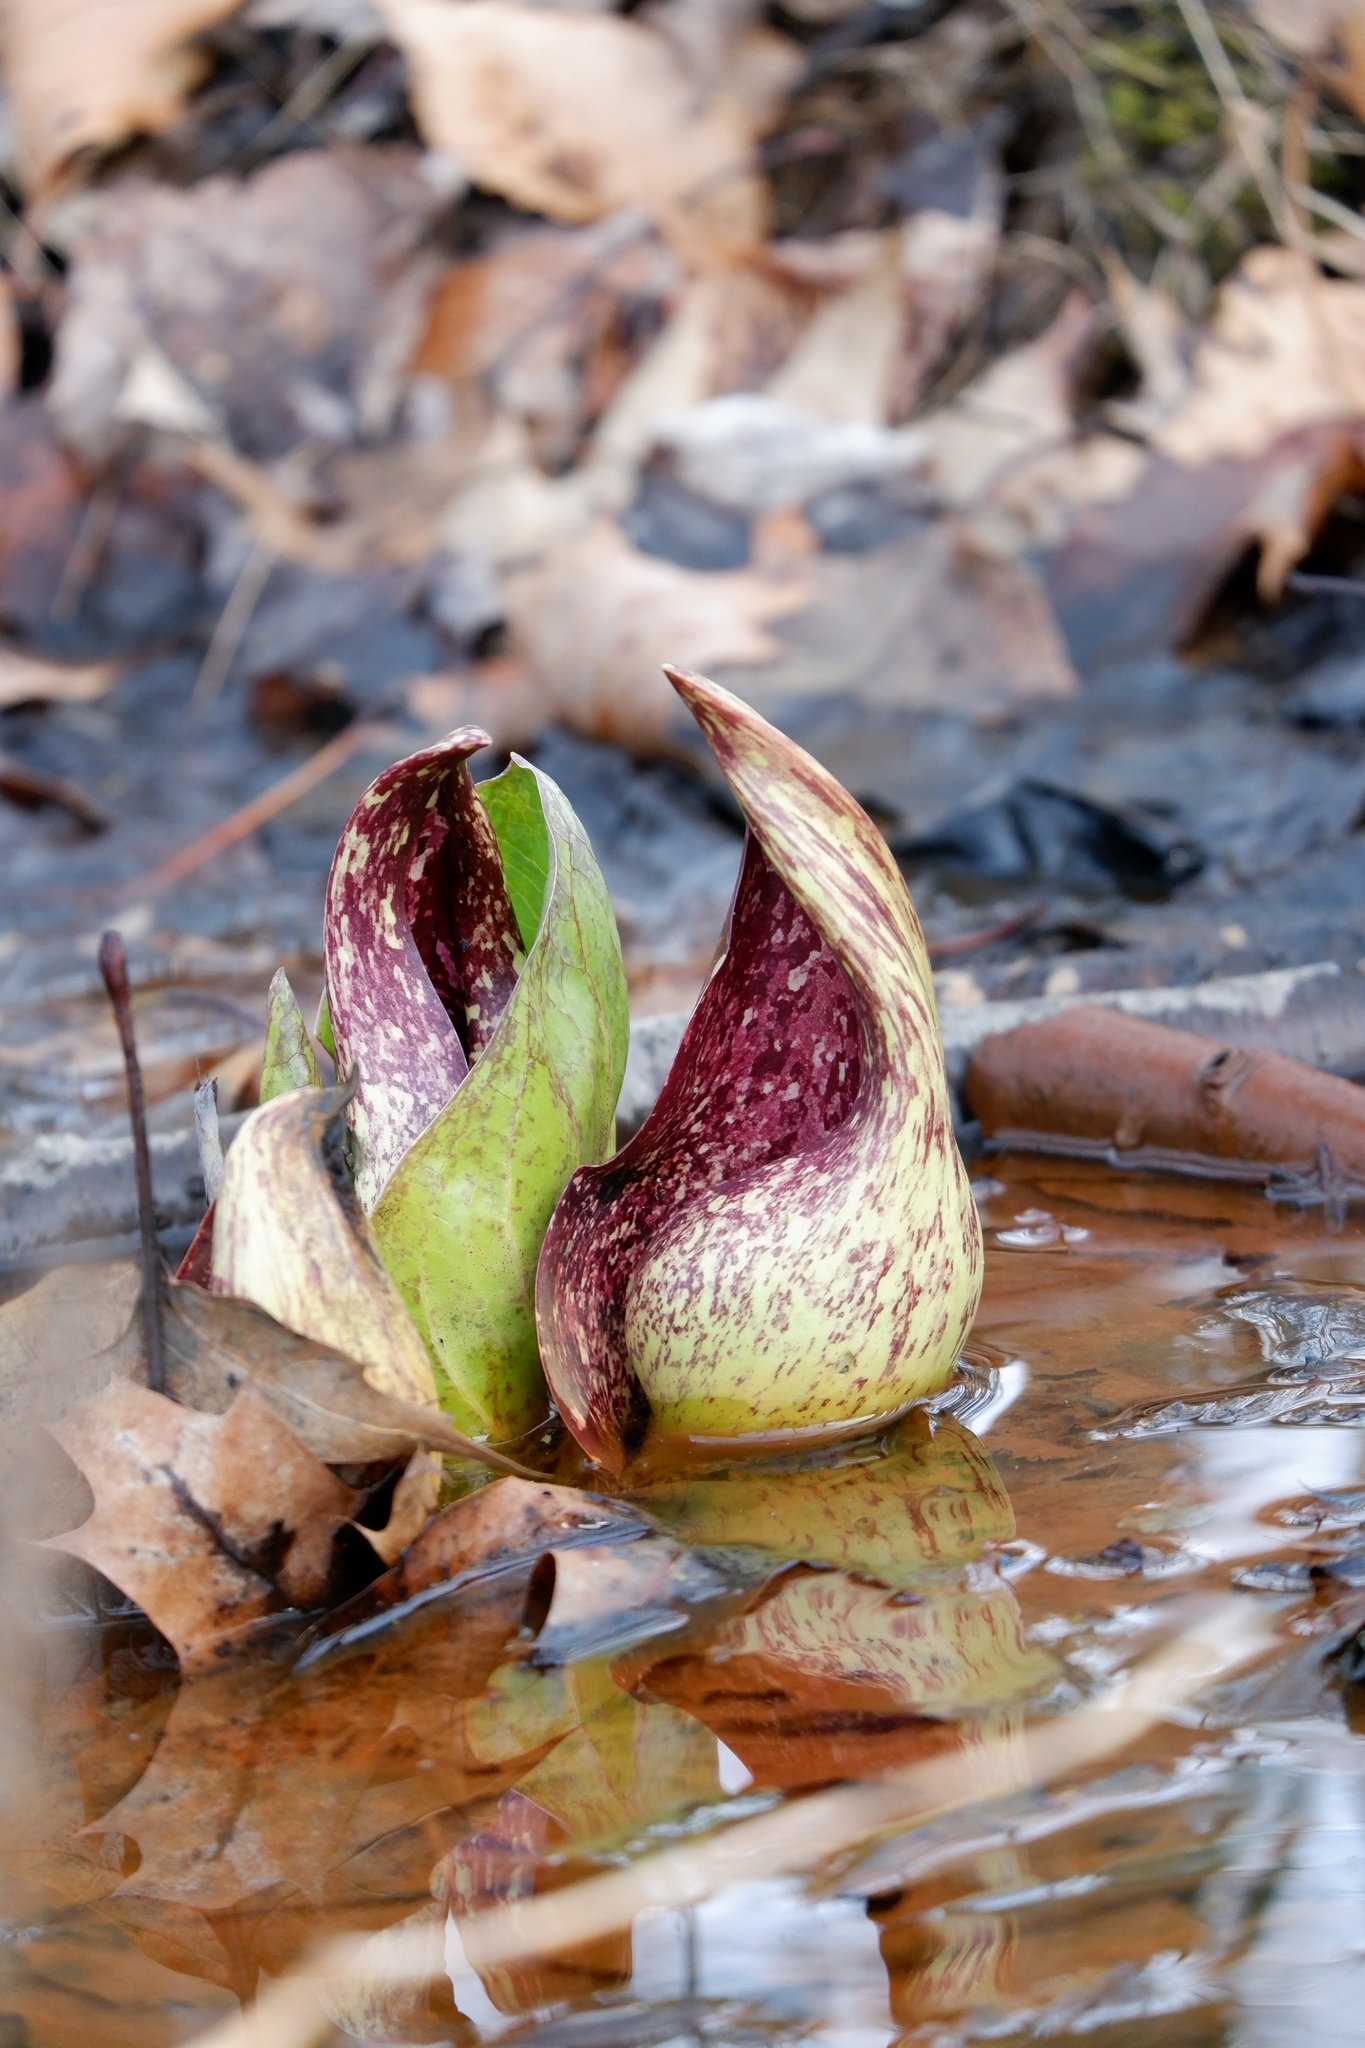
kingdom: Plantae
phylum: Tracheophyta
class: Liliopsida
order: Alismatales
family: Araceae
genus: Symplocarpus
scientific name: Symplocarpus foetidus
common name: Eastern skunk cabbage
